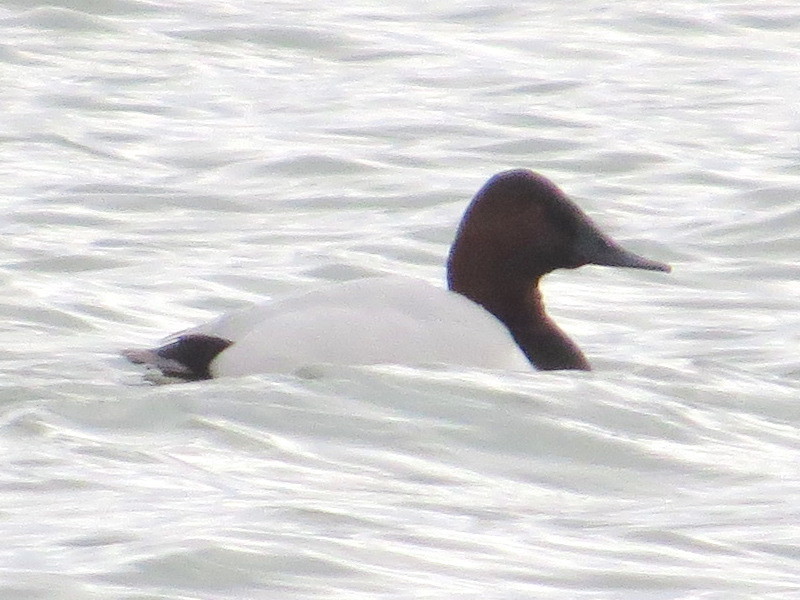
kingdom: Animalia
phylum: Chordata
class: Aves
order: Anseriformes
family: Anatidae
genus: Aythya
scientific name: Aythya valisineria
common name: Canvasback
